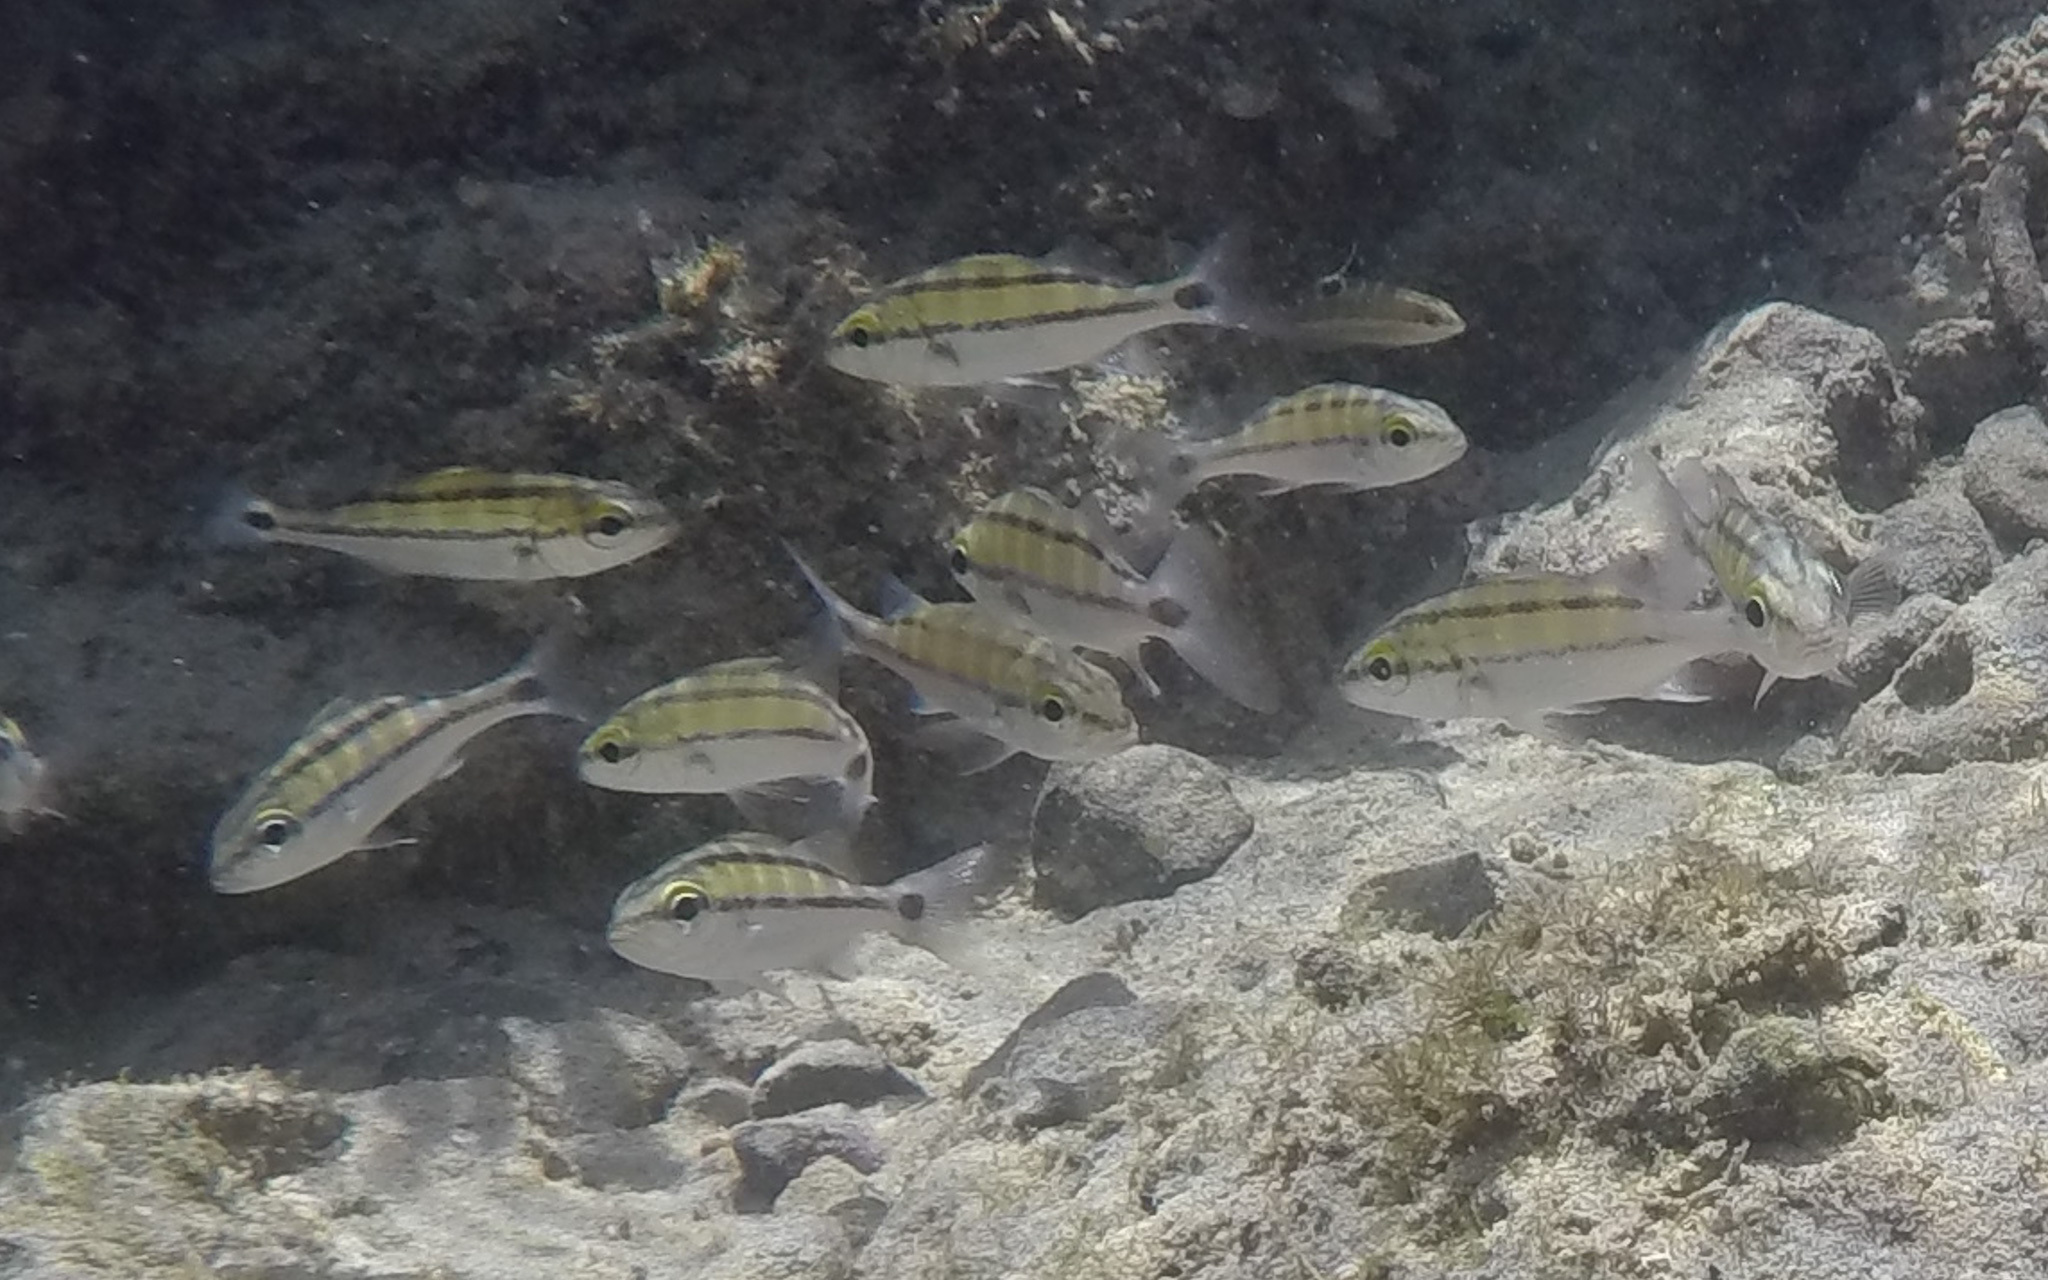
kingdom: Animalia
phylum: Chordata
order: Perciformes
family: Haemulidae
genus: Haemulon
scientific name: Haemulon sexfasciatum
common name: Graybar grunt
